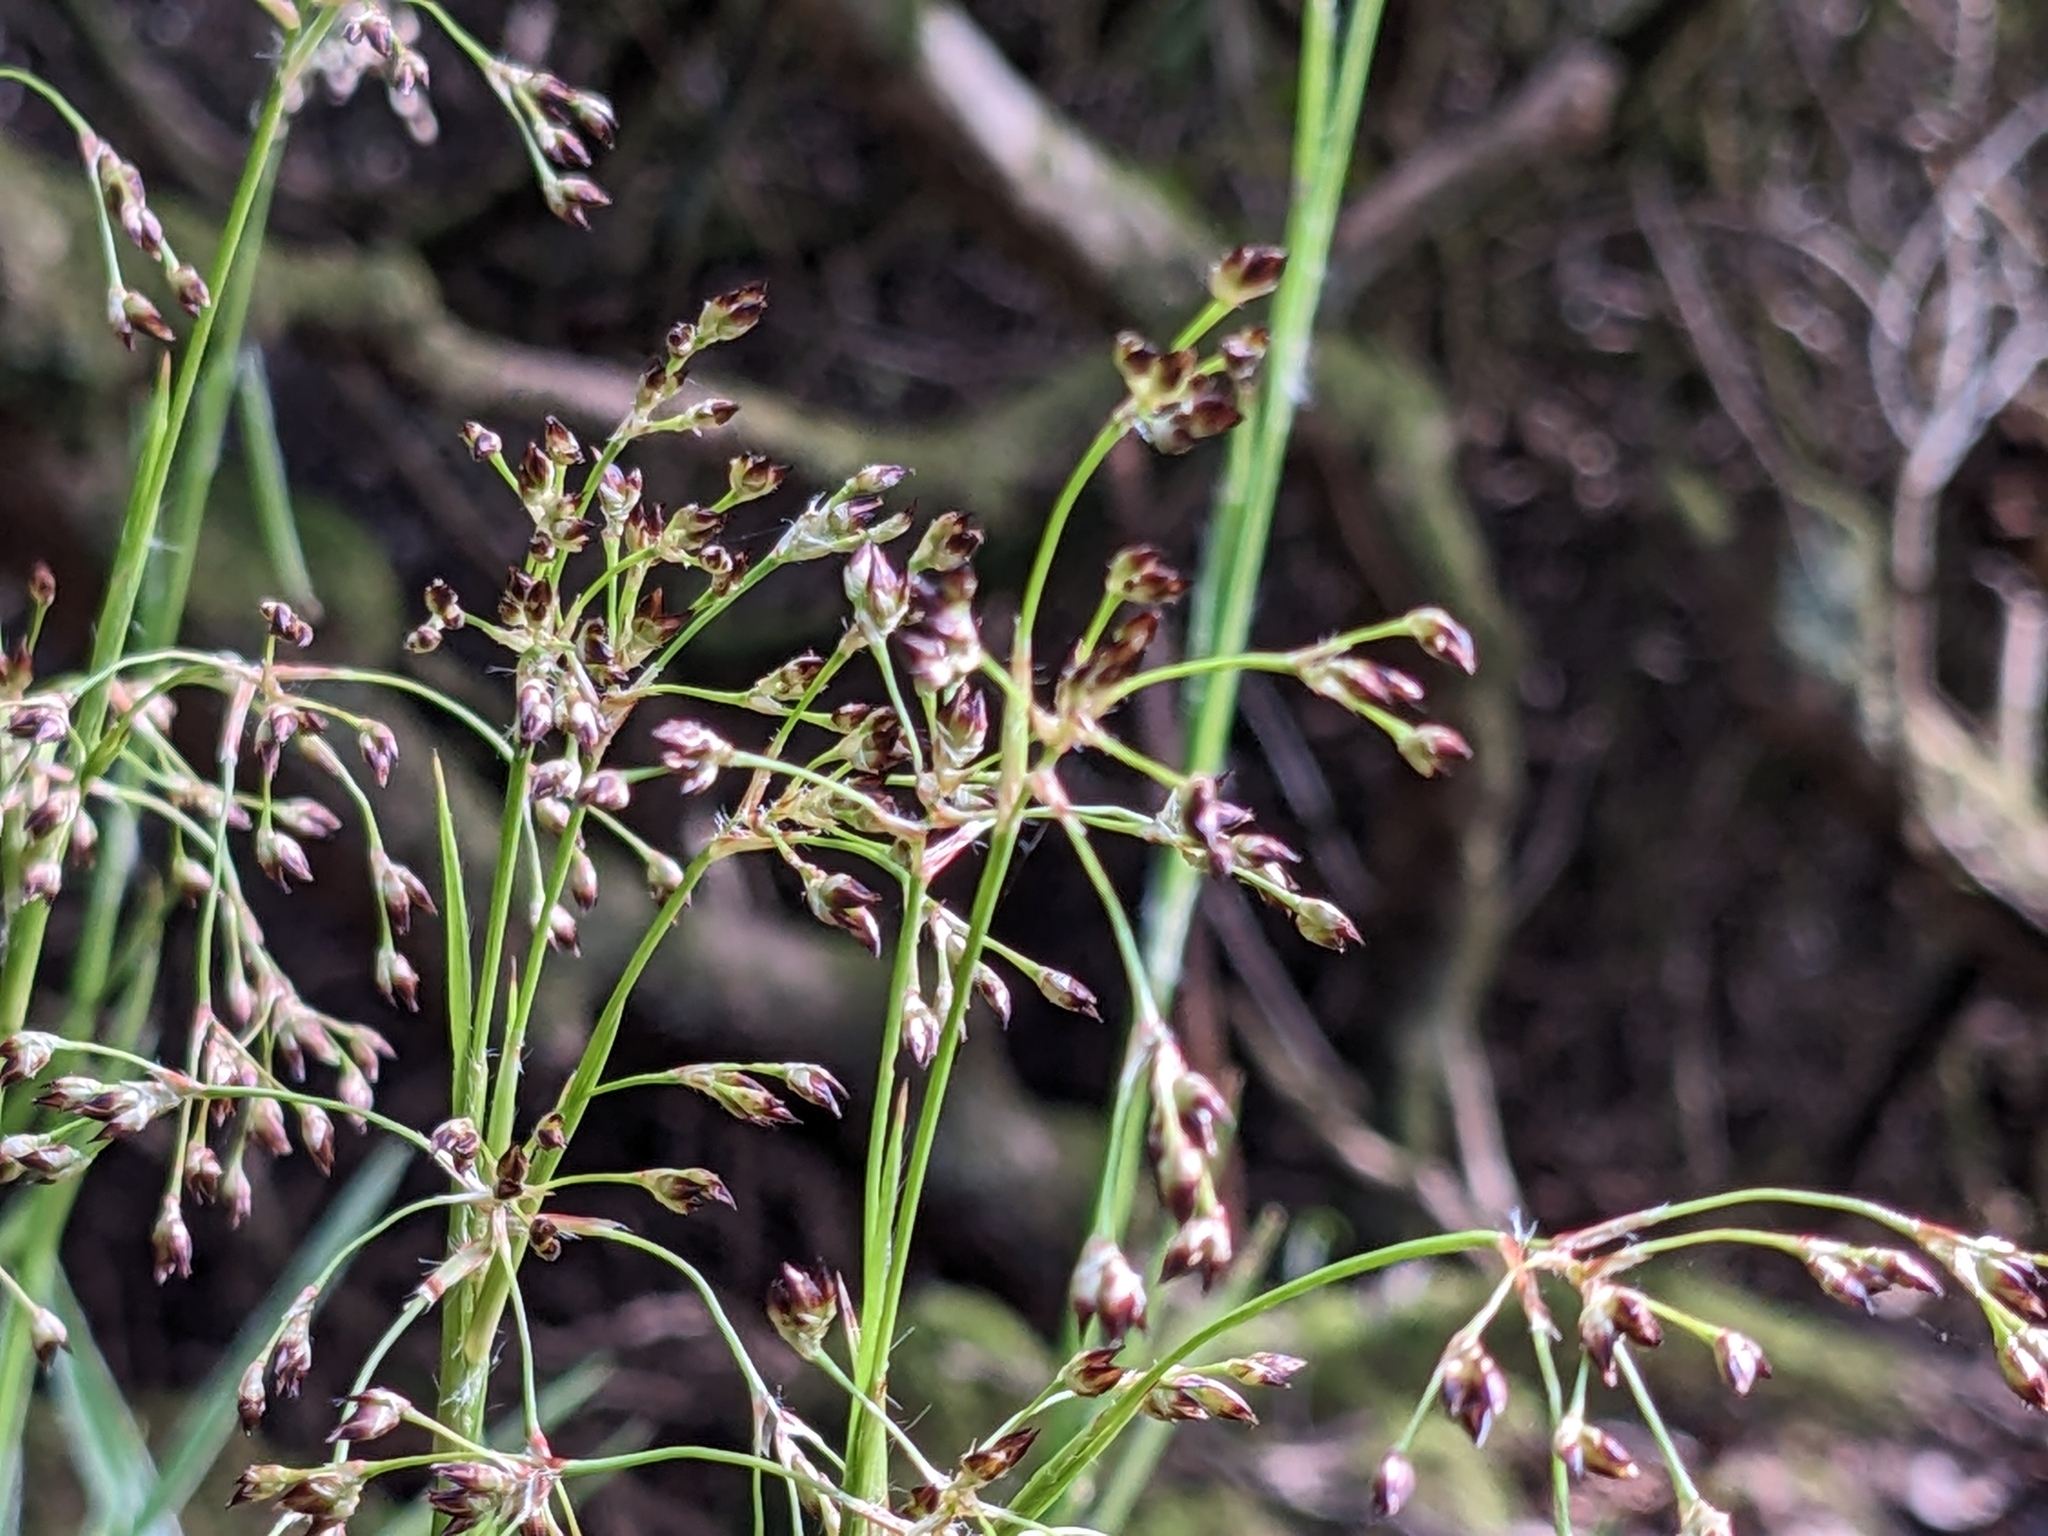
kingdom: Plantae
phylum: Tracheophyta
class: Liliopsida
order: Poales
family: Juncaceae
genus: Luzula
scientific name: Luzula sylvatica
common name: Great wood-rush
